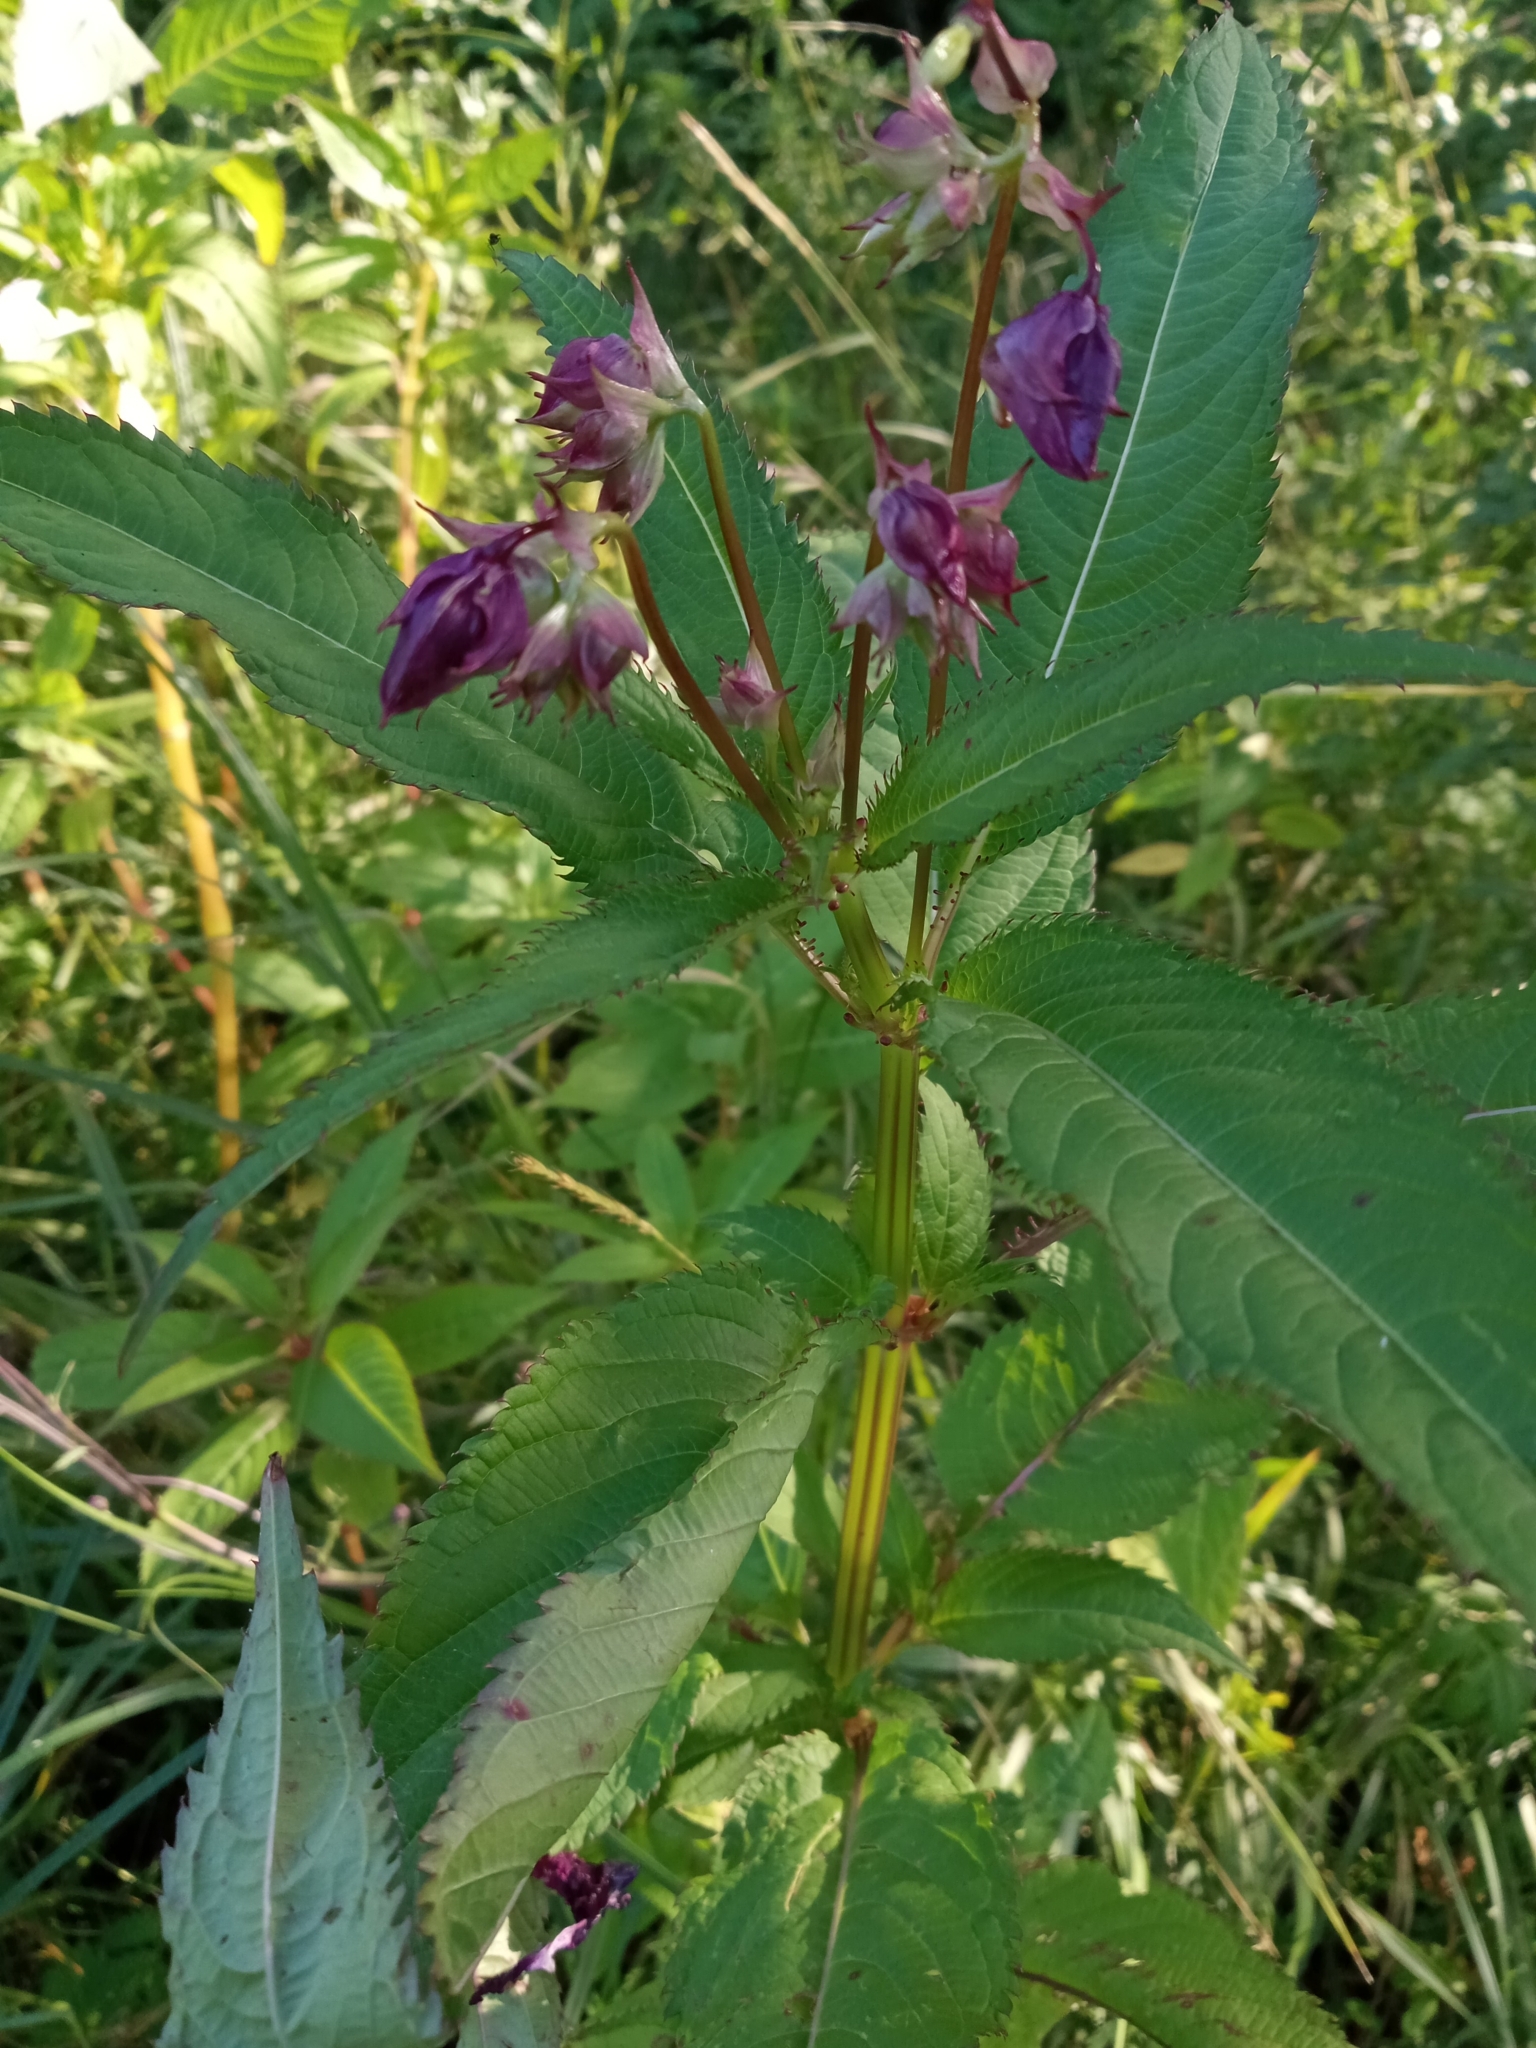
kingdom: Plantae
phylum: Tracheophyta
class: Magnoliopsida
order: Ericales
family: Balsaminaceae
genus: Impatiens
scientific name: Impatiens glandulifera
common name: Himalayan balsam
